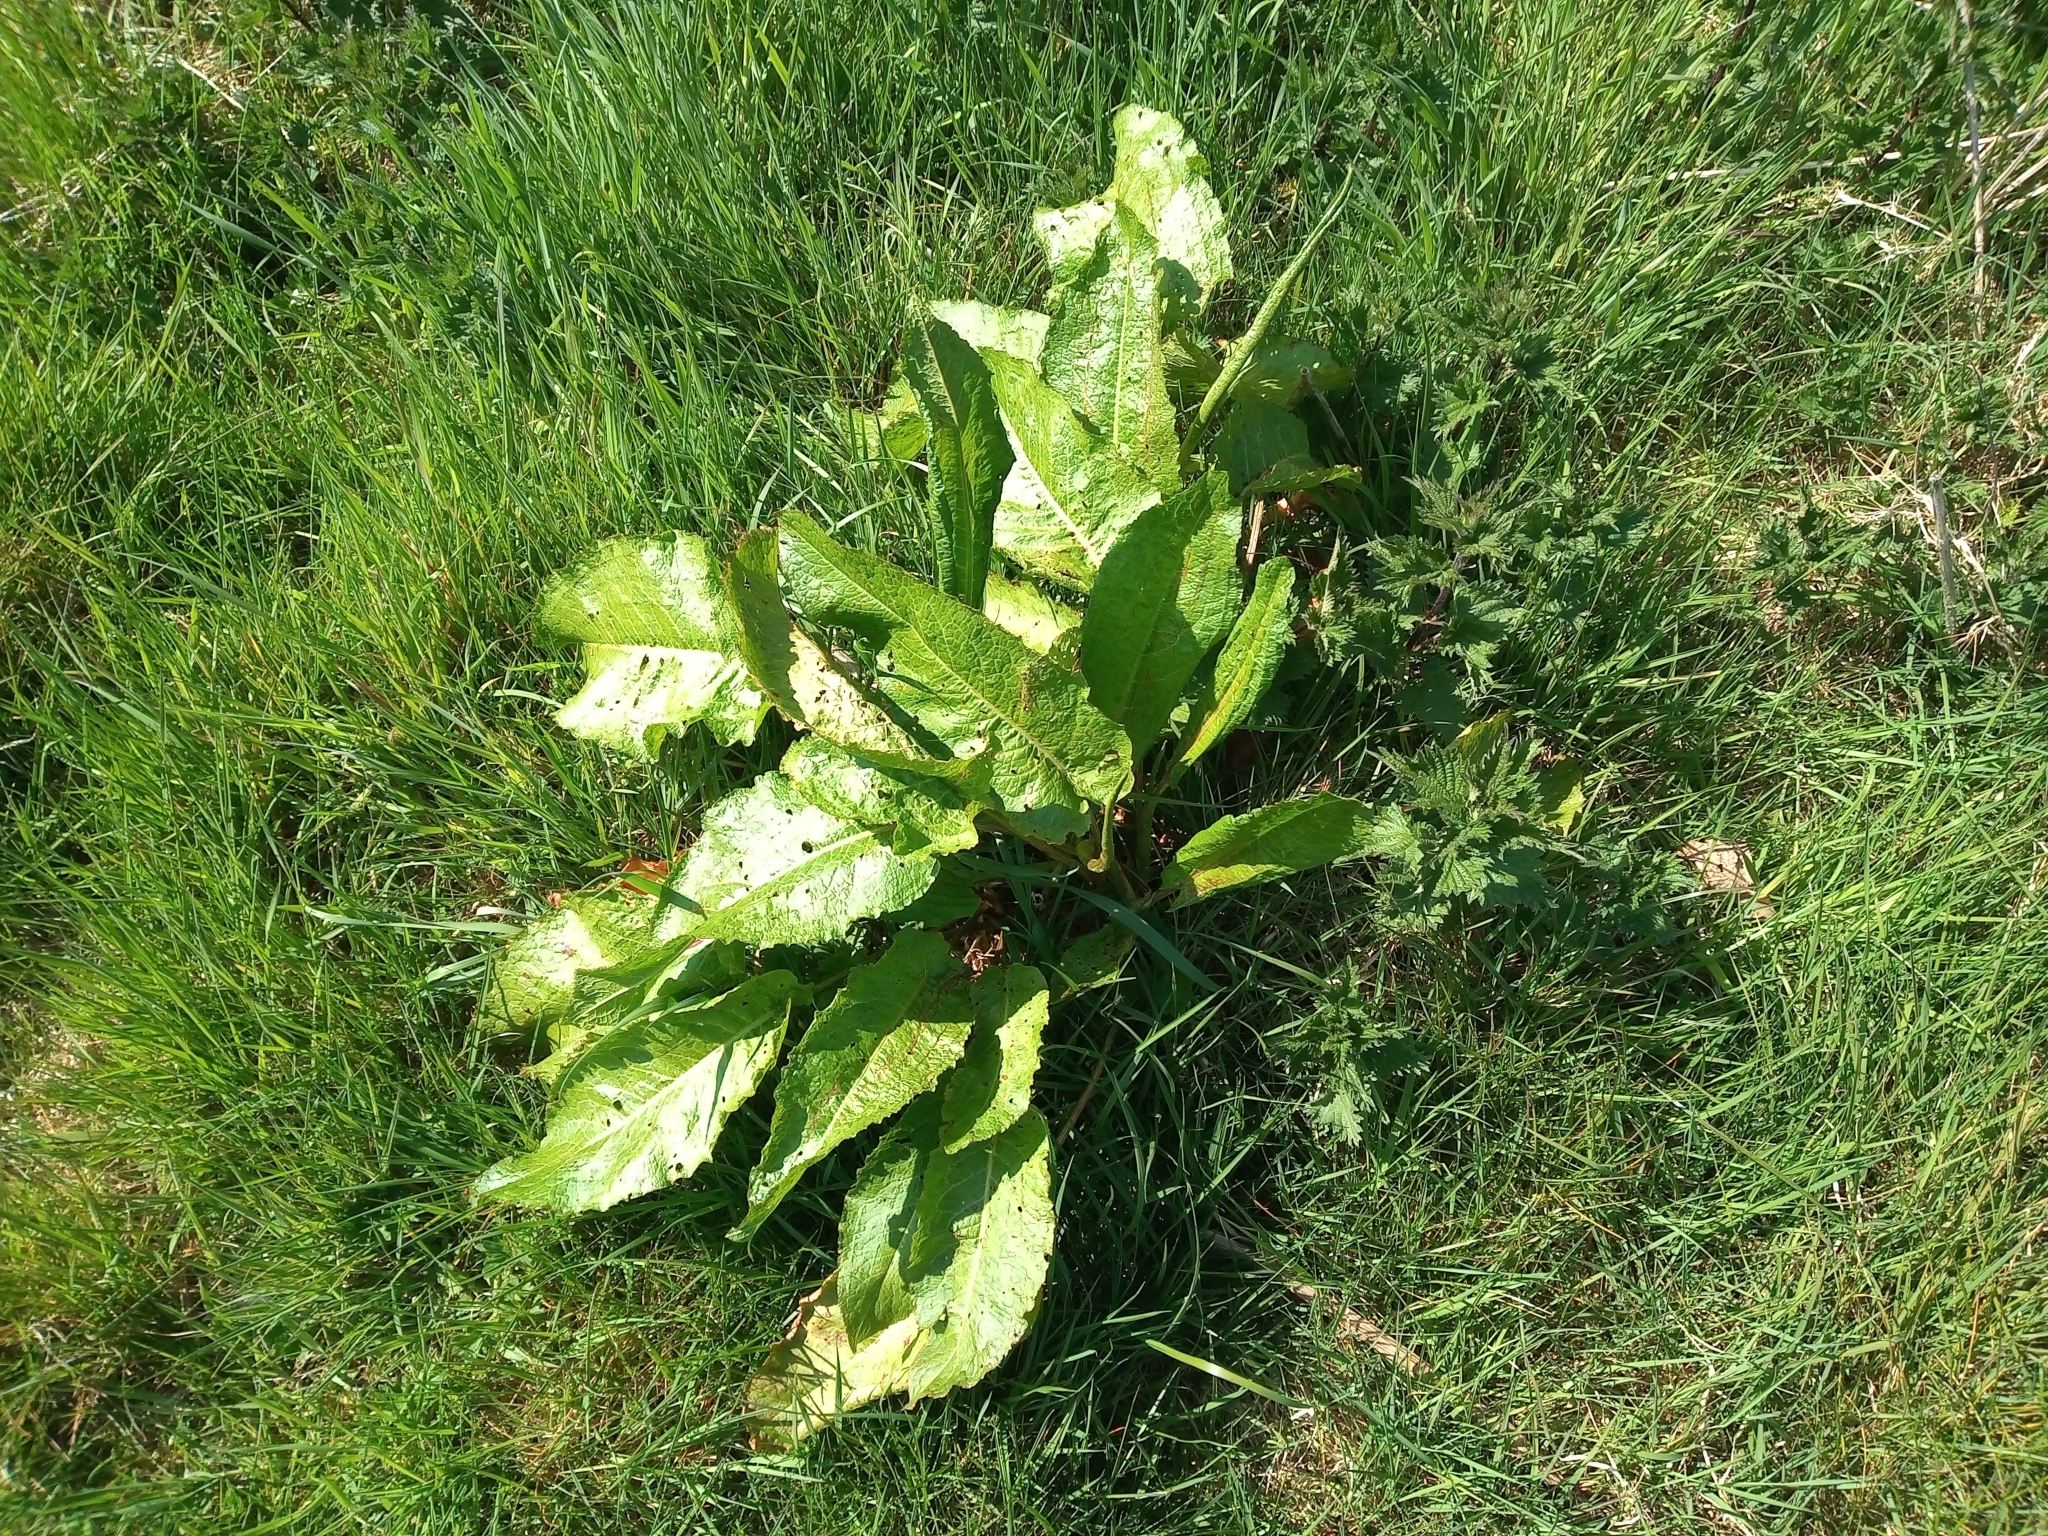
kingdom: Plantae
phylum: Tracheophyta
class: Magnoliopsida
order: Caryophyllales
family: Polygonaceae
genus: Rumex
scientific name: Rumex obtusifolius
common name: Bitter dock
